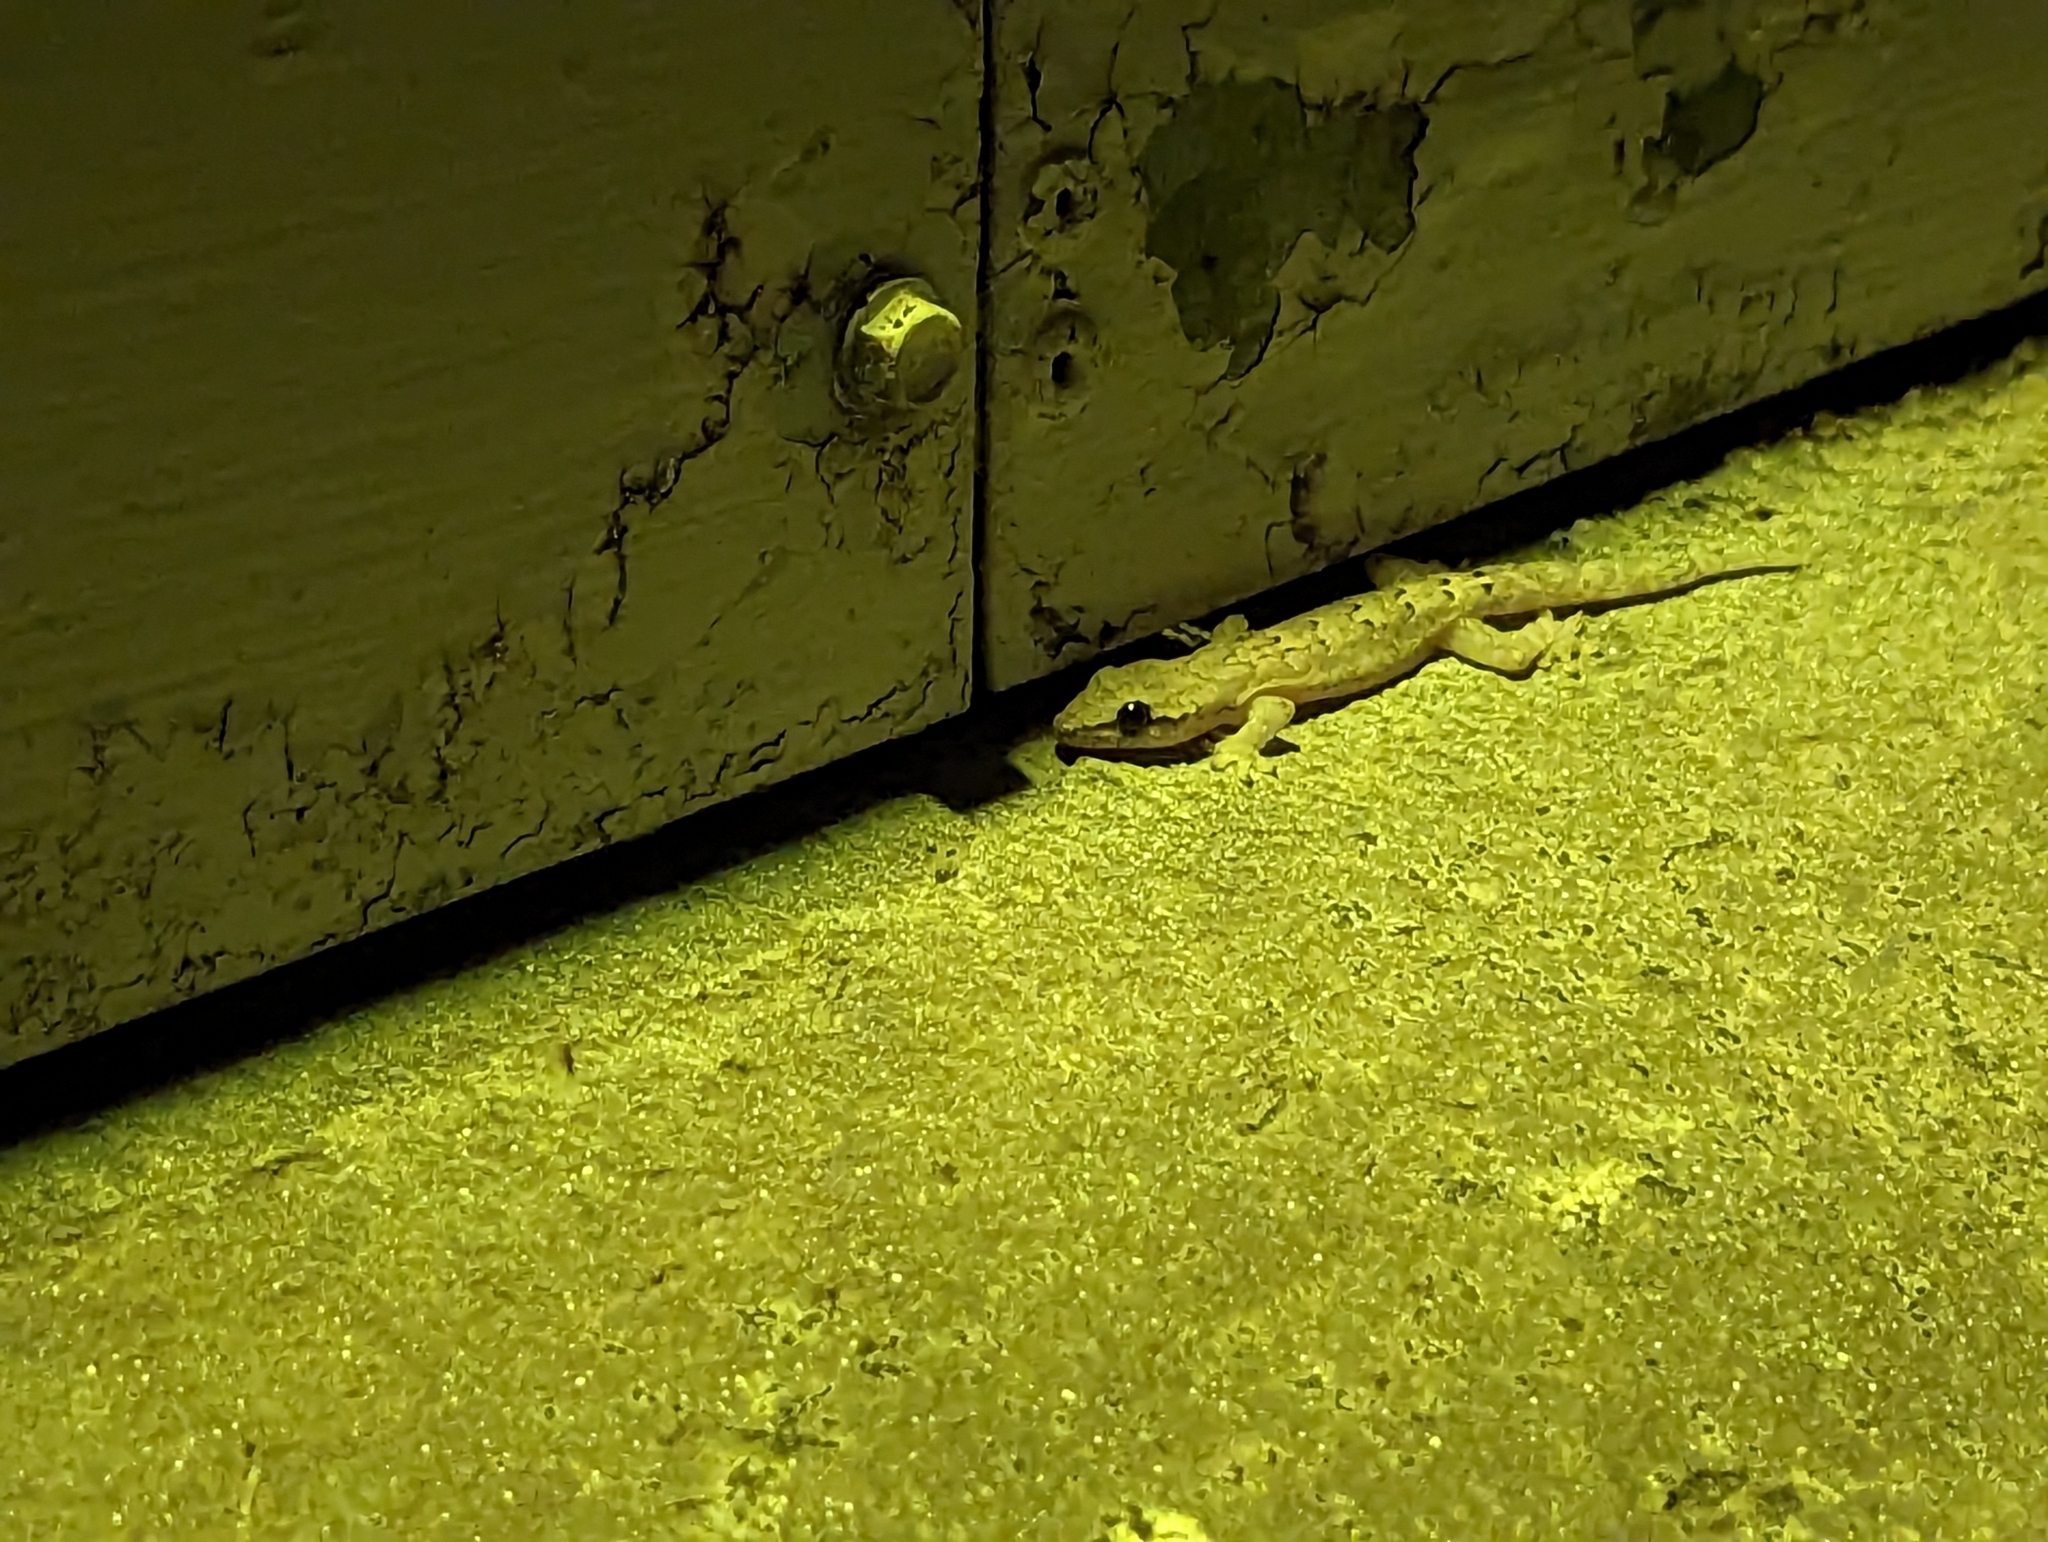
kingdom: Animalia
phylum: Chordata
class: Squamata
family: Gekkonidae
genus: Lepidodactylus
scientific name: Lepidodactylus lugubris
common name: Mourning gecko
